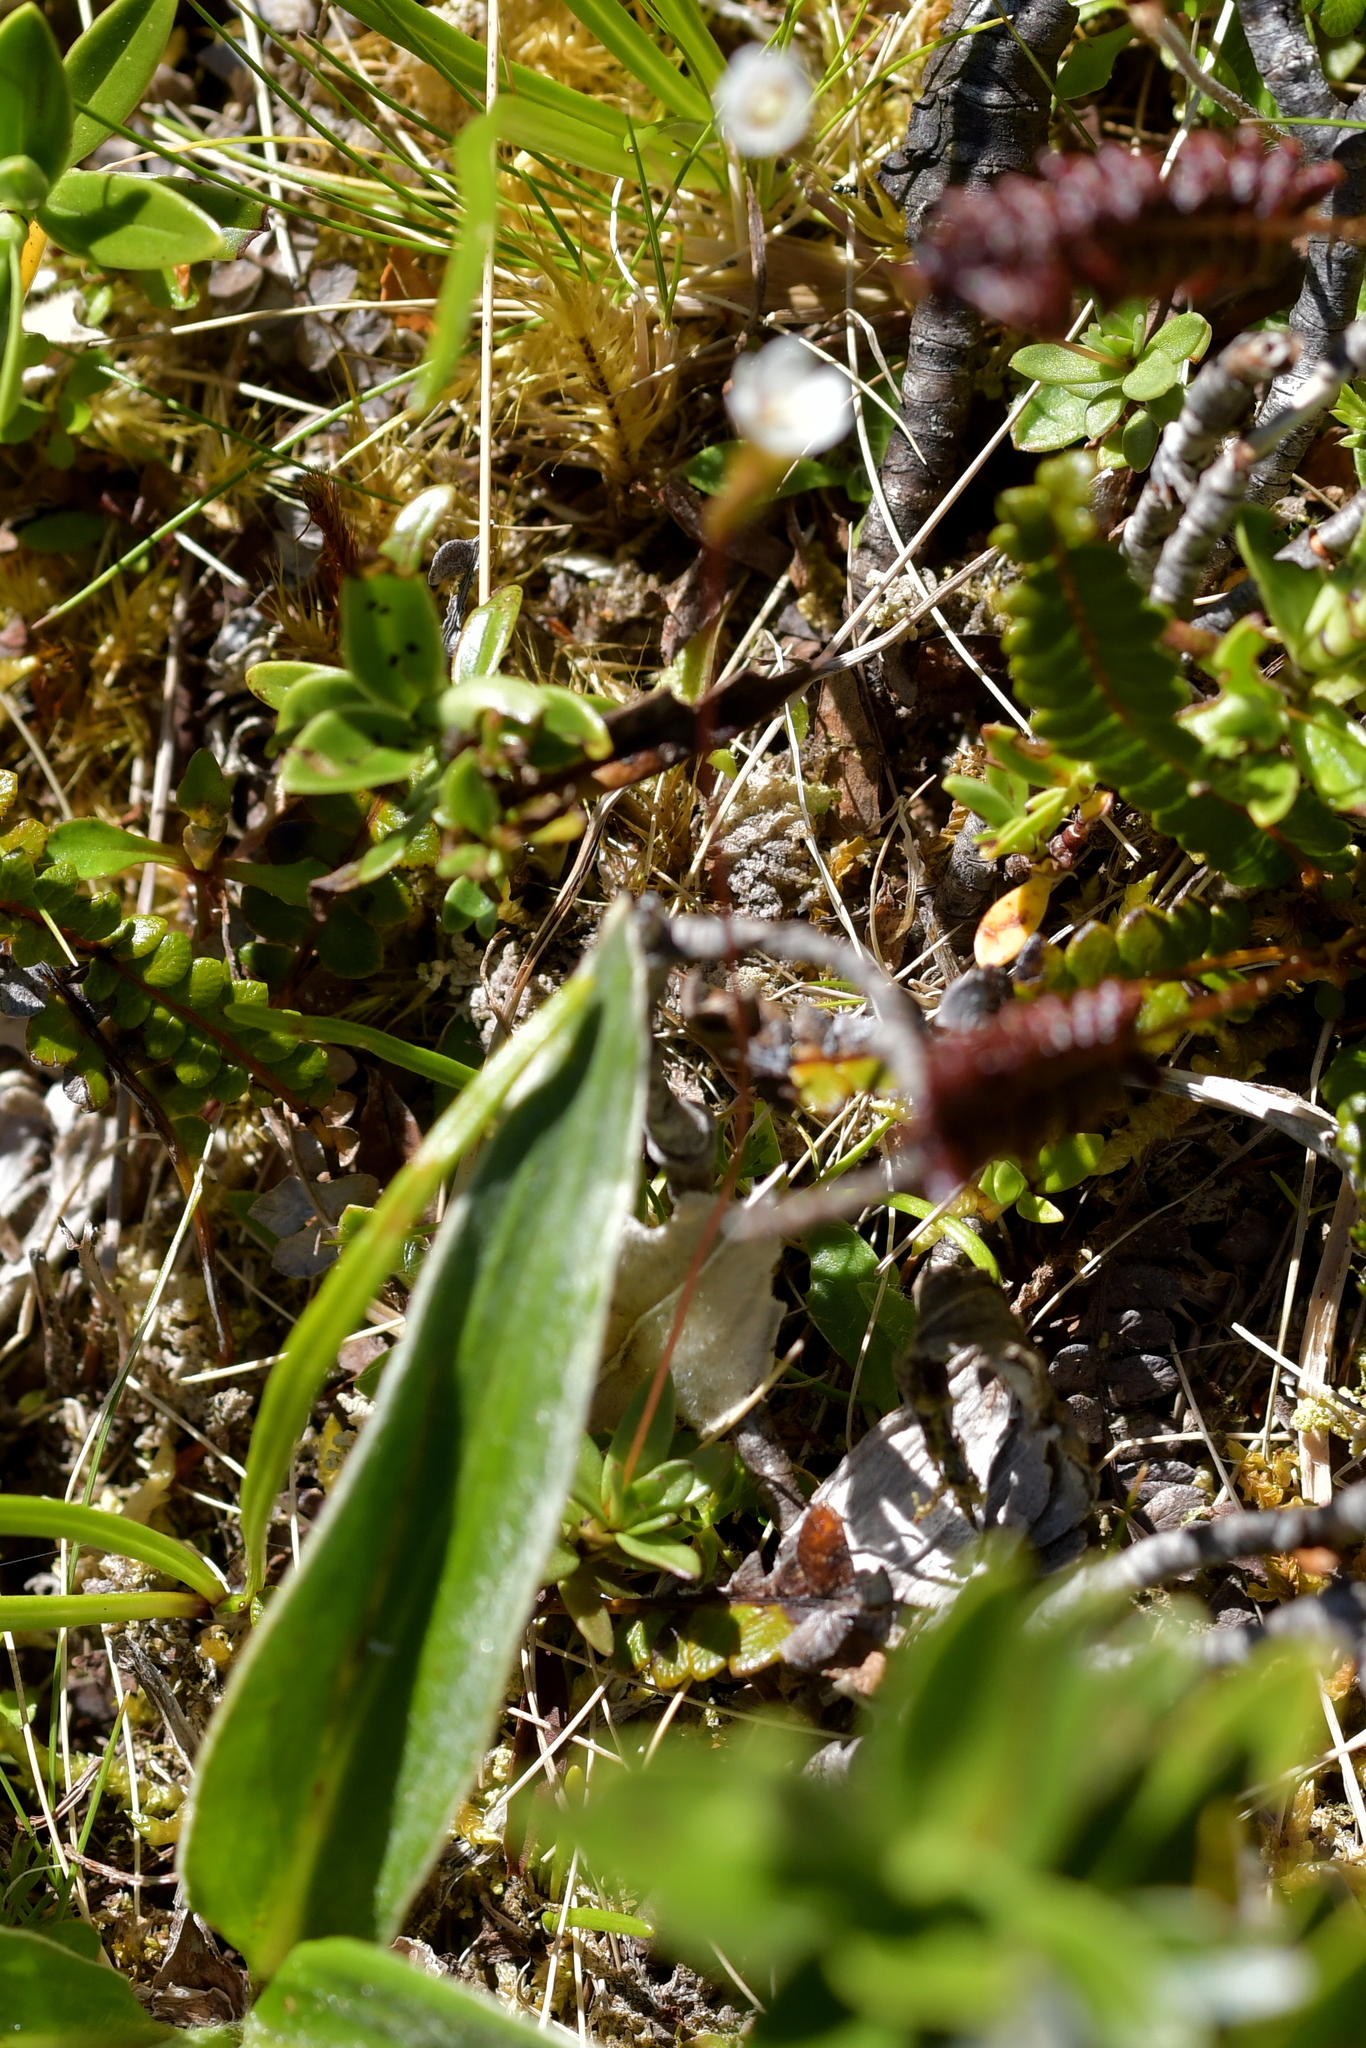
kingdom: Plantae
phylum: Tracheophyta
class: Magnoliopsida
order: Asterales
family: Stylidiaceae
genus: Forstera
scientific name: Forstera tenella
